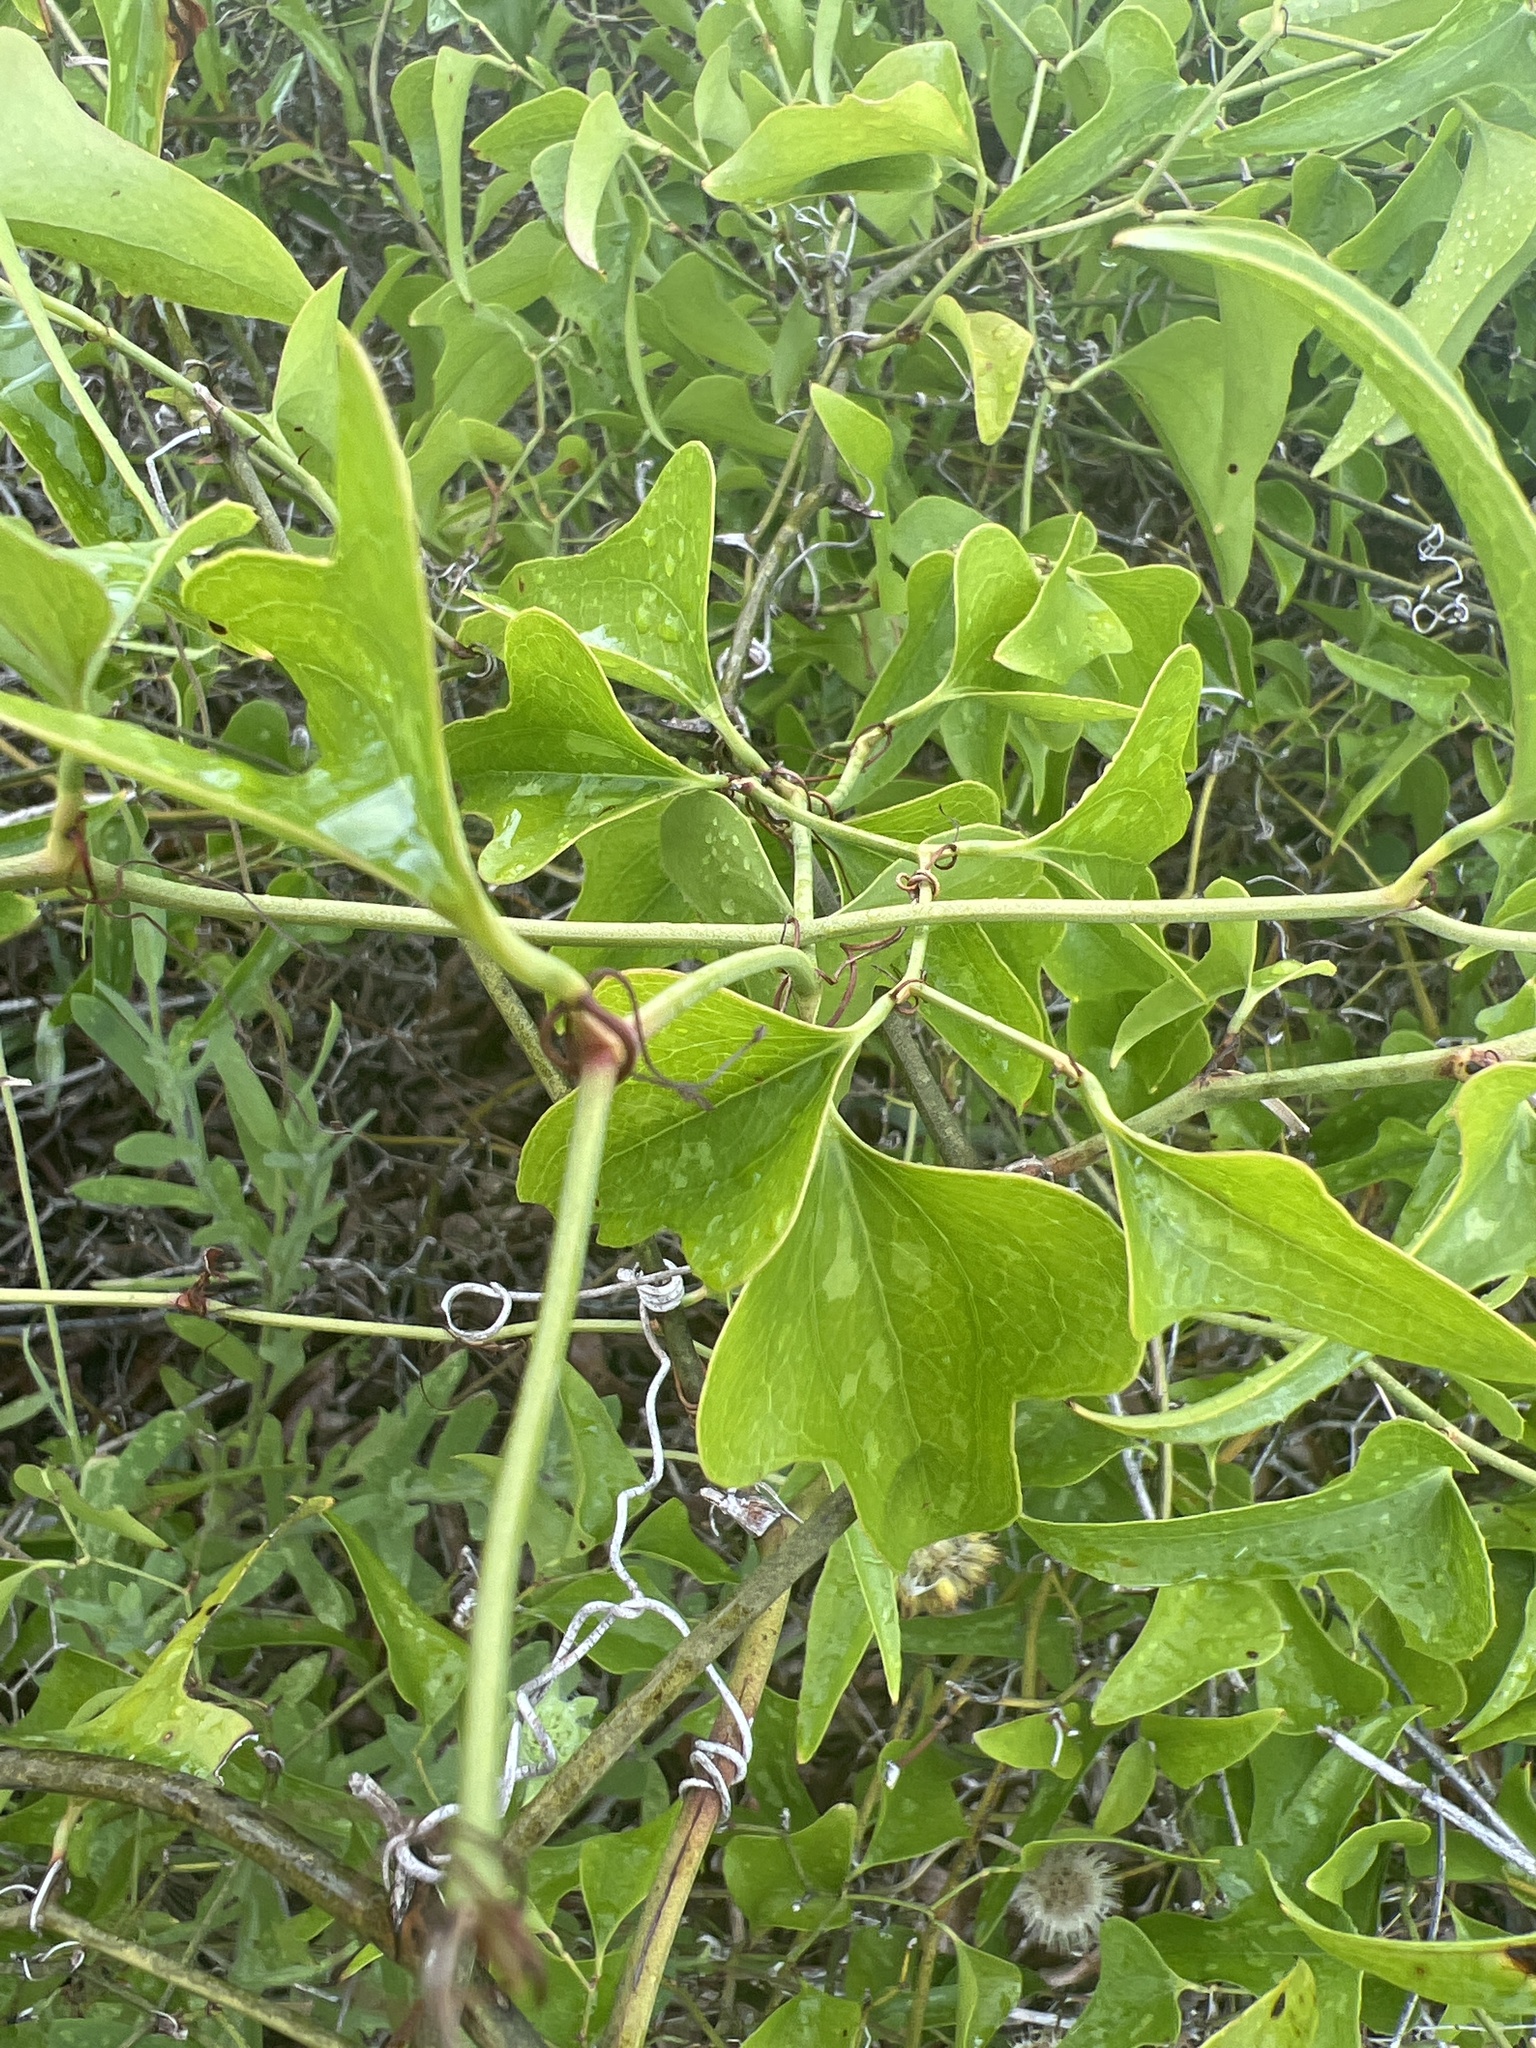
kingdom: Plantae
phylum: Tracheophyta
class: Liliopsida
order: Liliales
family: Smilacaceae
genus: Smilax
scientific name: Smilax bona-nox
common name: Catbrier
